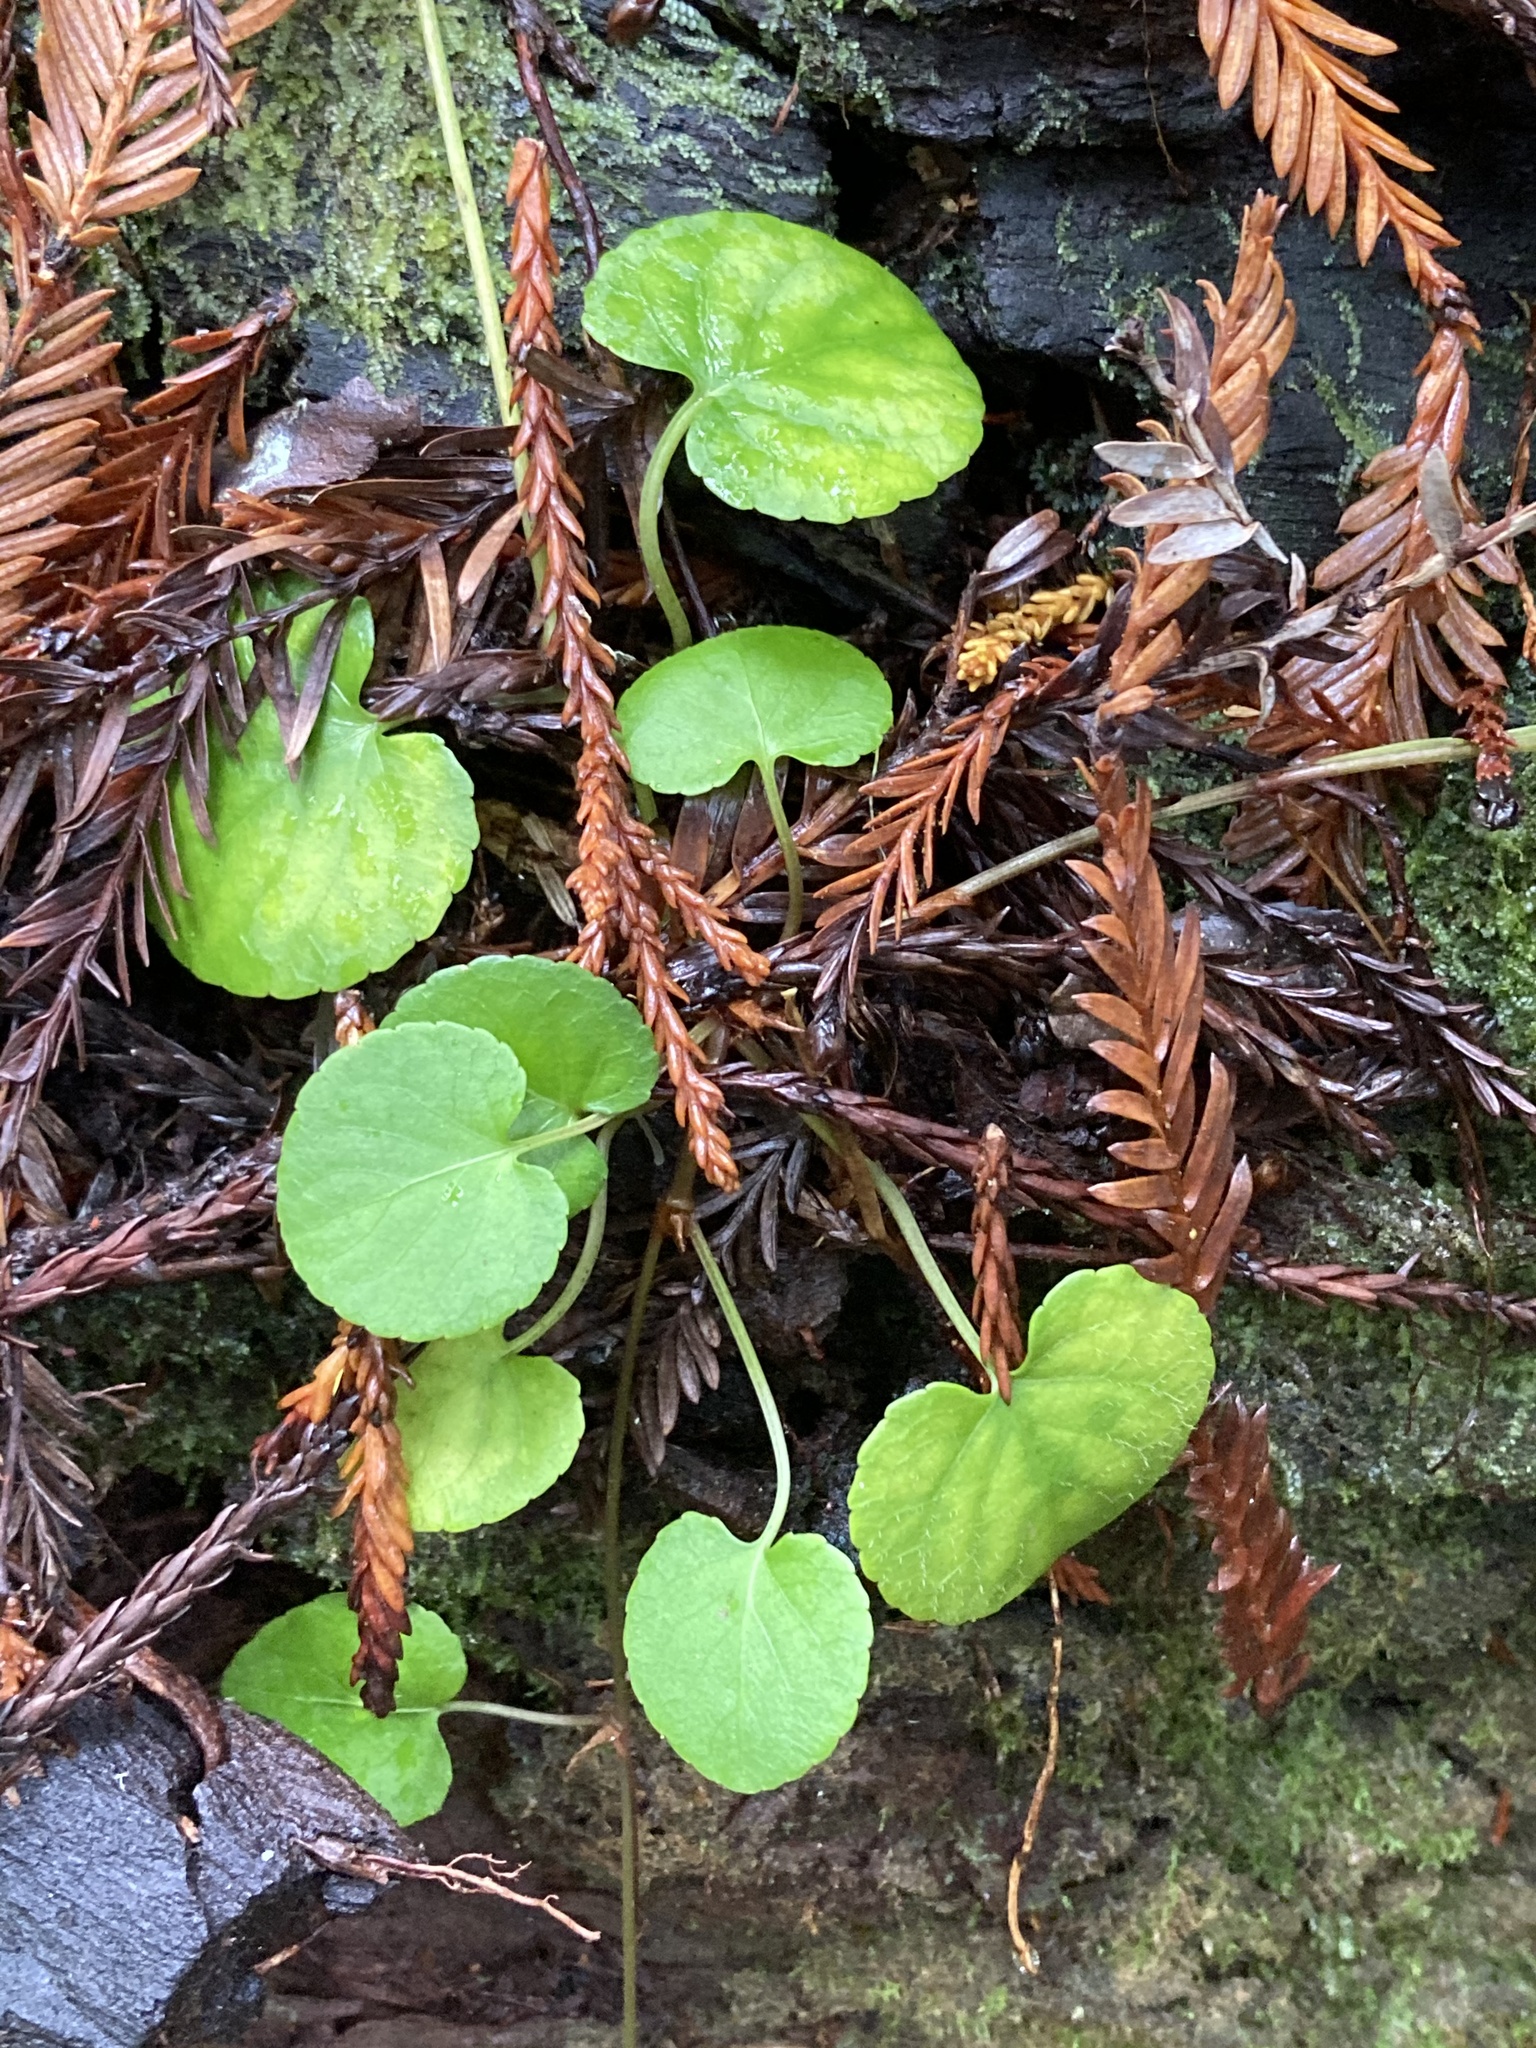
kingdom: Plantae
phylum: Tracheophyta
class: Magnoliopsida
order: Malpighiales
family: Violaceae
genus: Viola
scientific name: Viola sempervirens
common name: Evergreen violet
